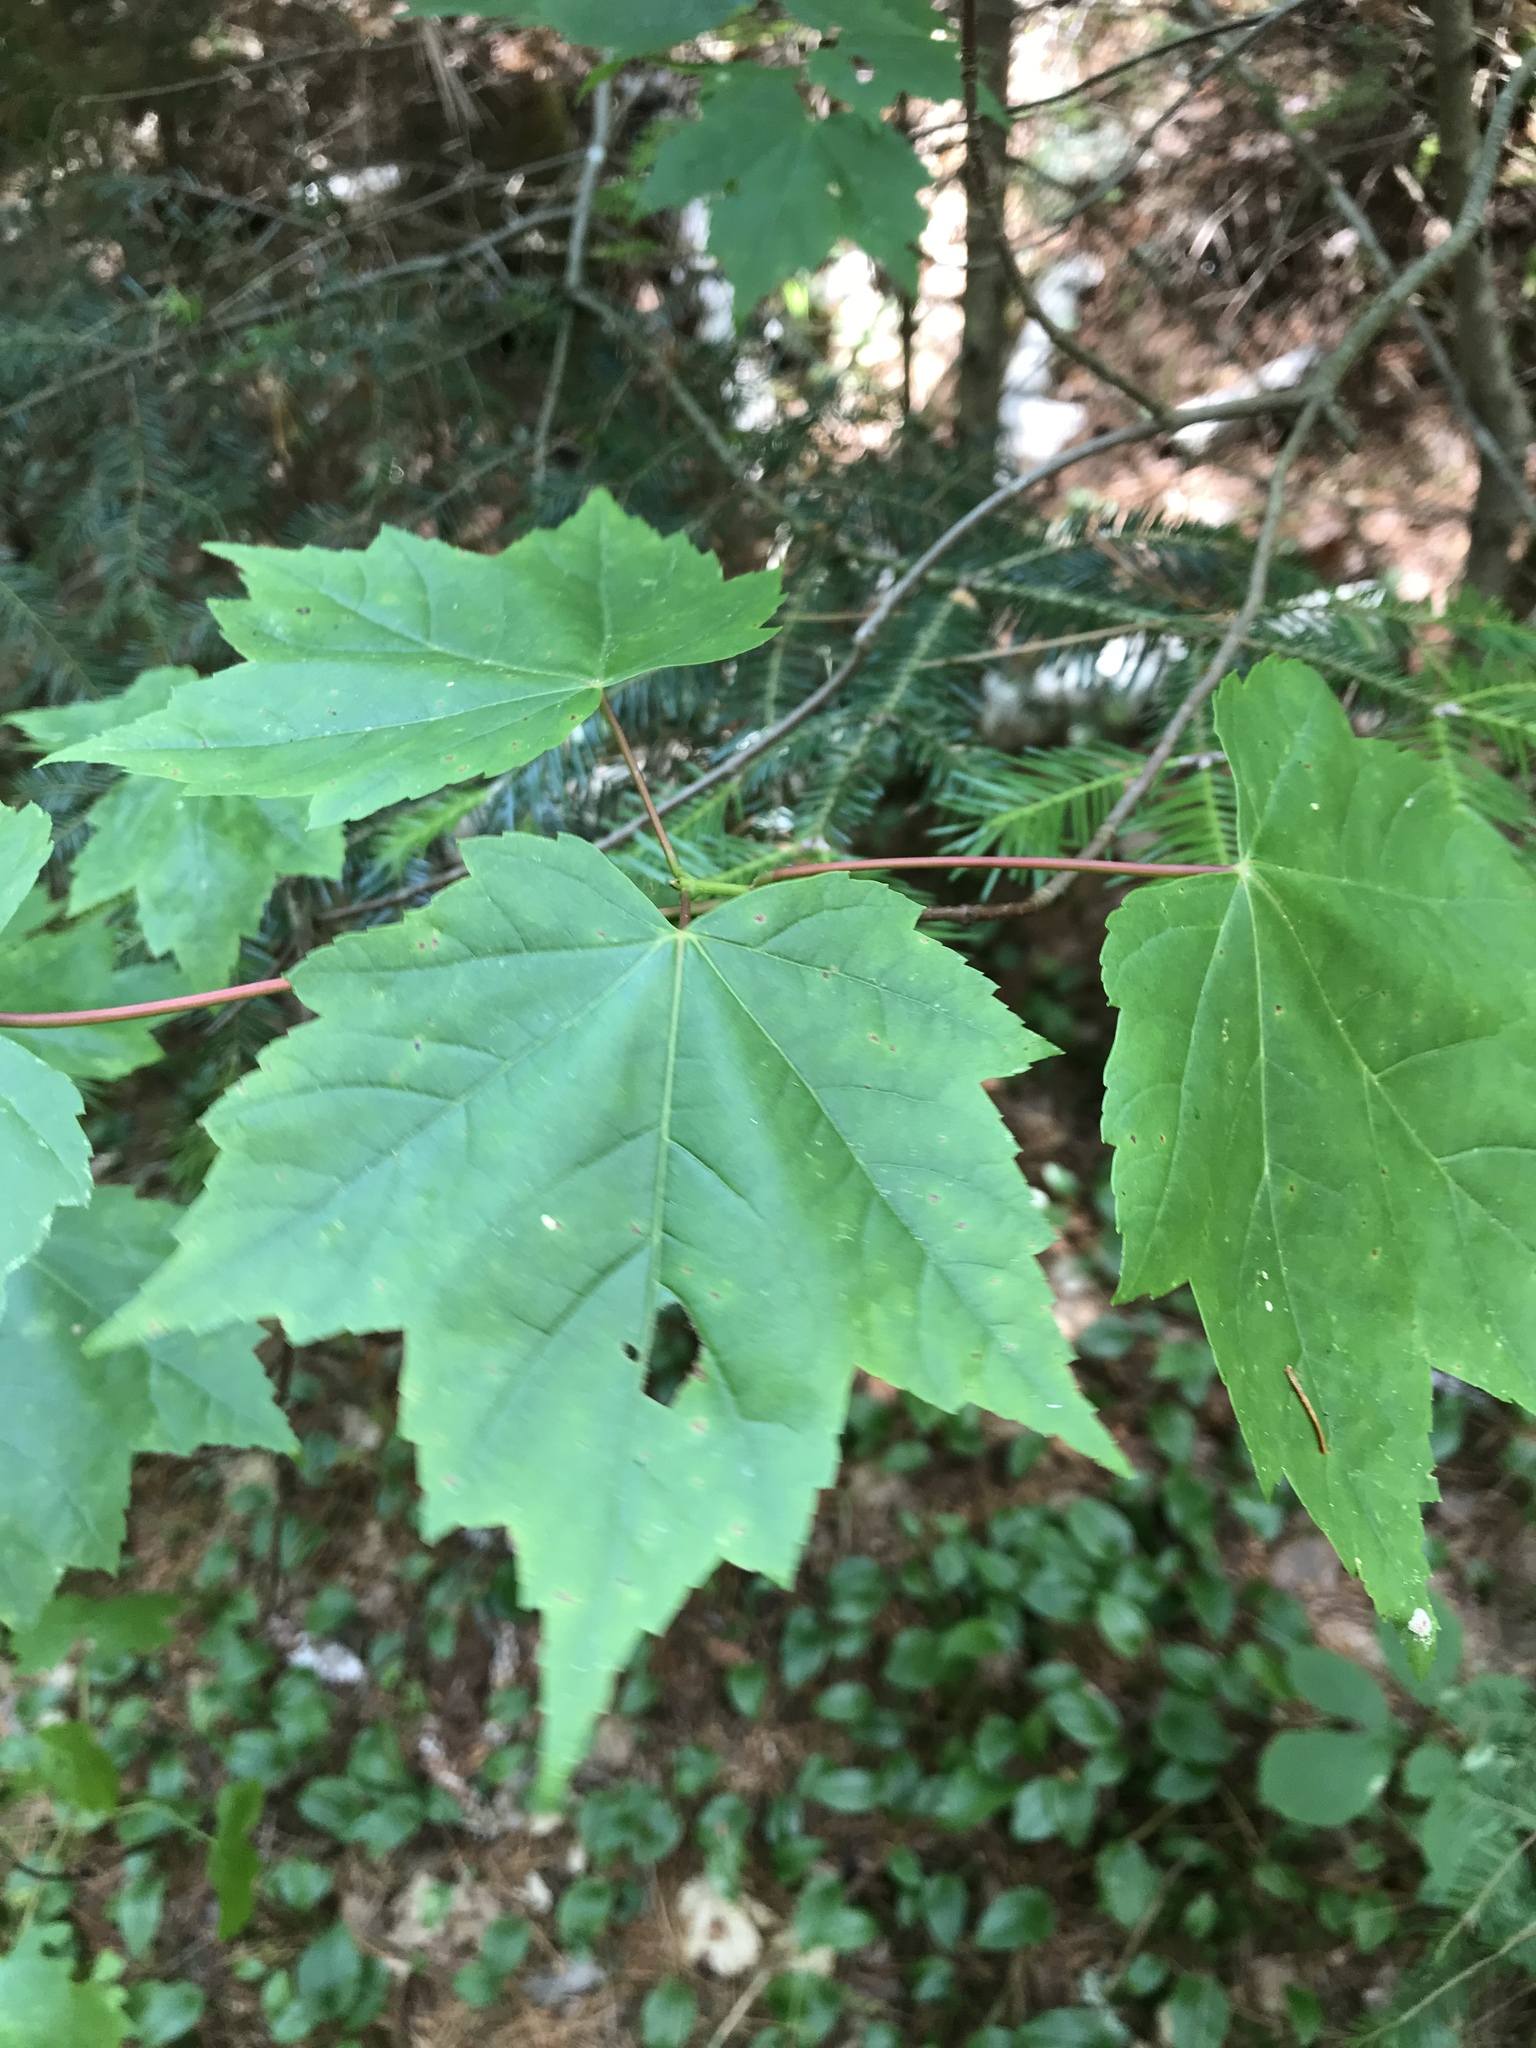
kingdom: Plantae
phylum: Tracheophyta
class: Magnoliopsida
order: Sapindales
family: Sapindaceae
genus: Acer
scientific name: Acer rubrum
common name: Red maple
